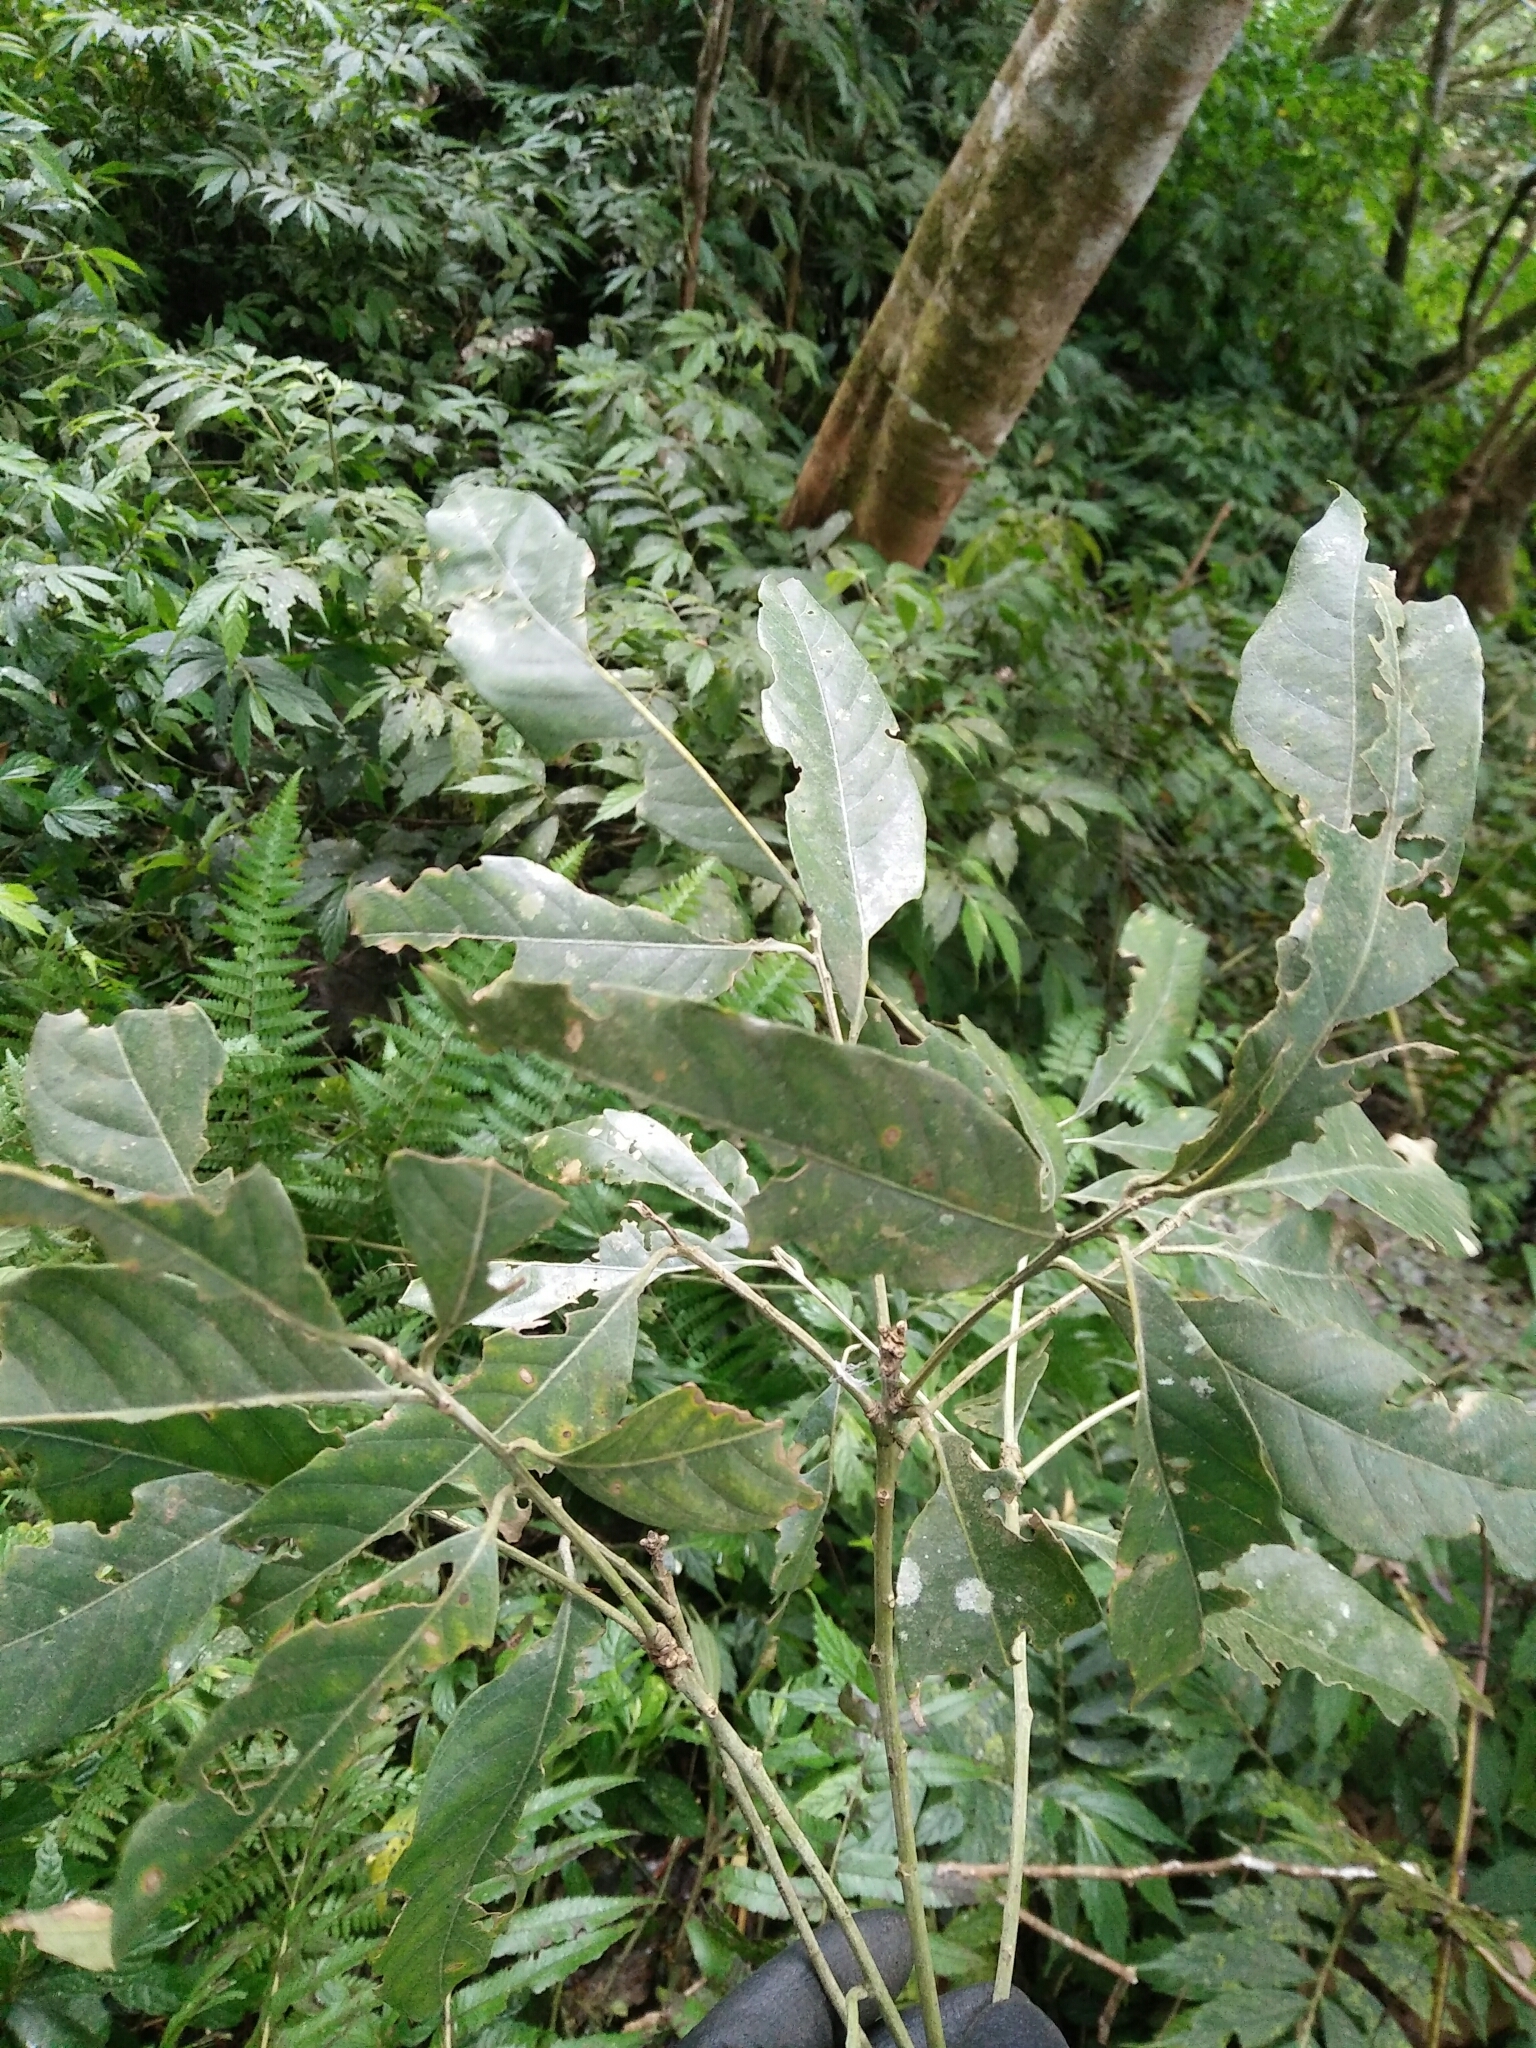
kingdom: Plantae
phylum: Tracheophyta
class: Magnoliopsida
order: Fagales
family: Fagaceae
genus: Lithocarpus
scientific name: Lithocarpus lepidocarpus
